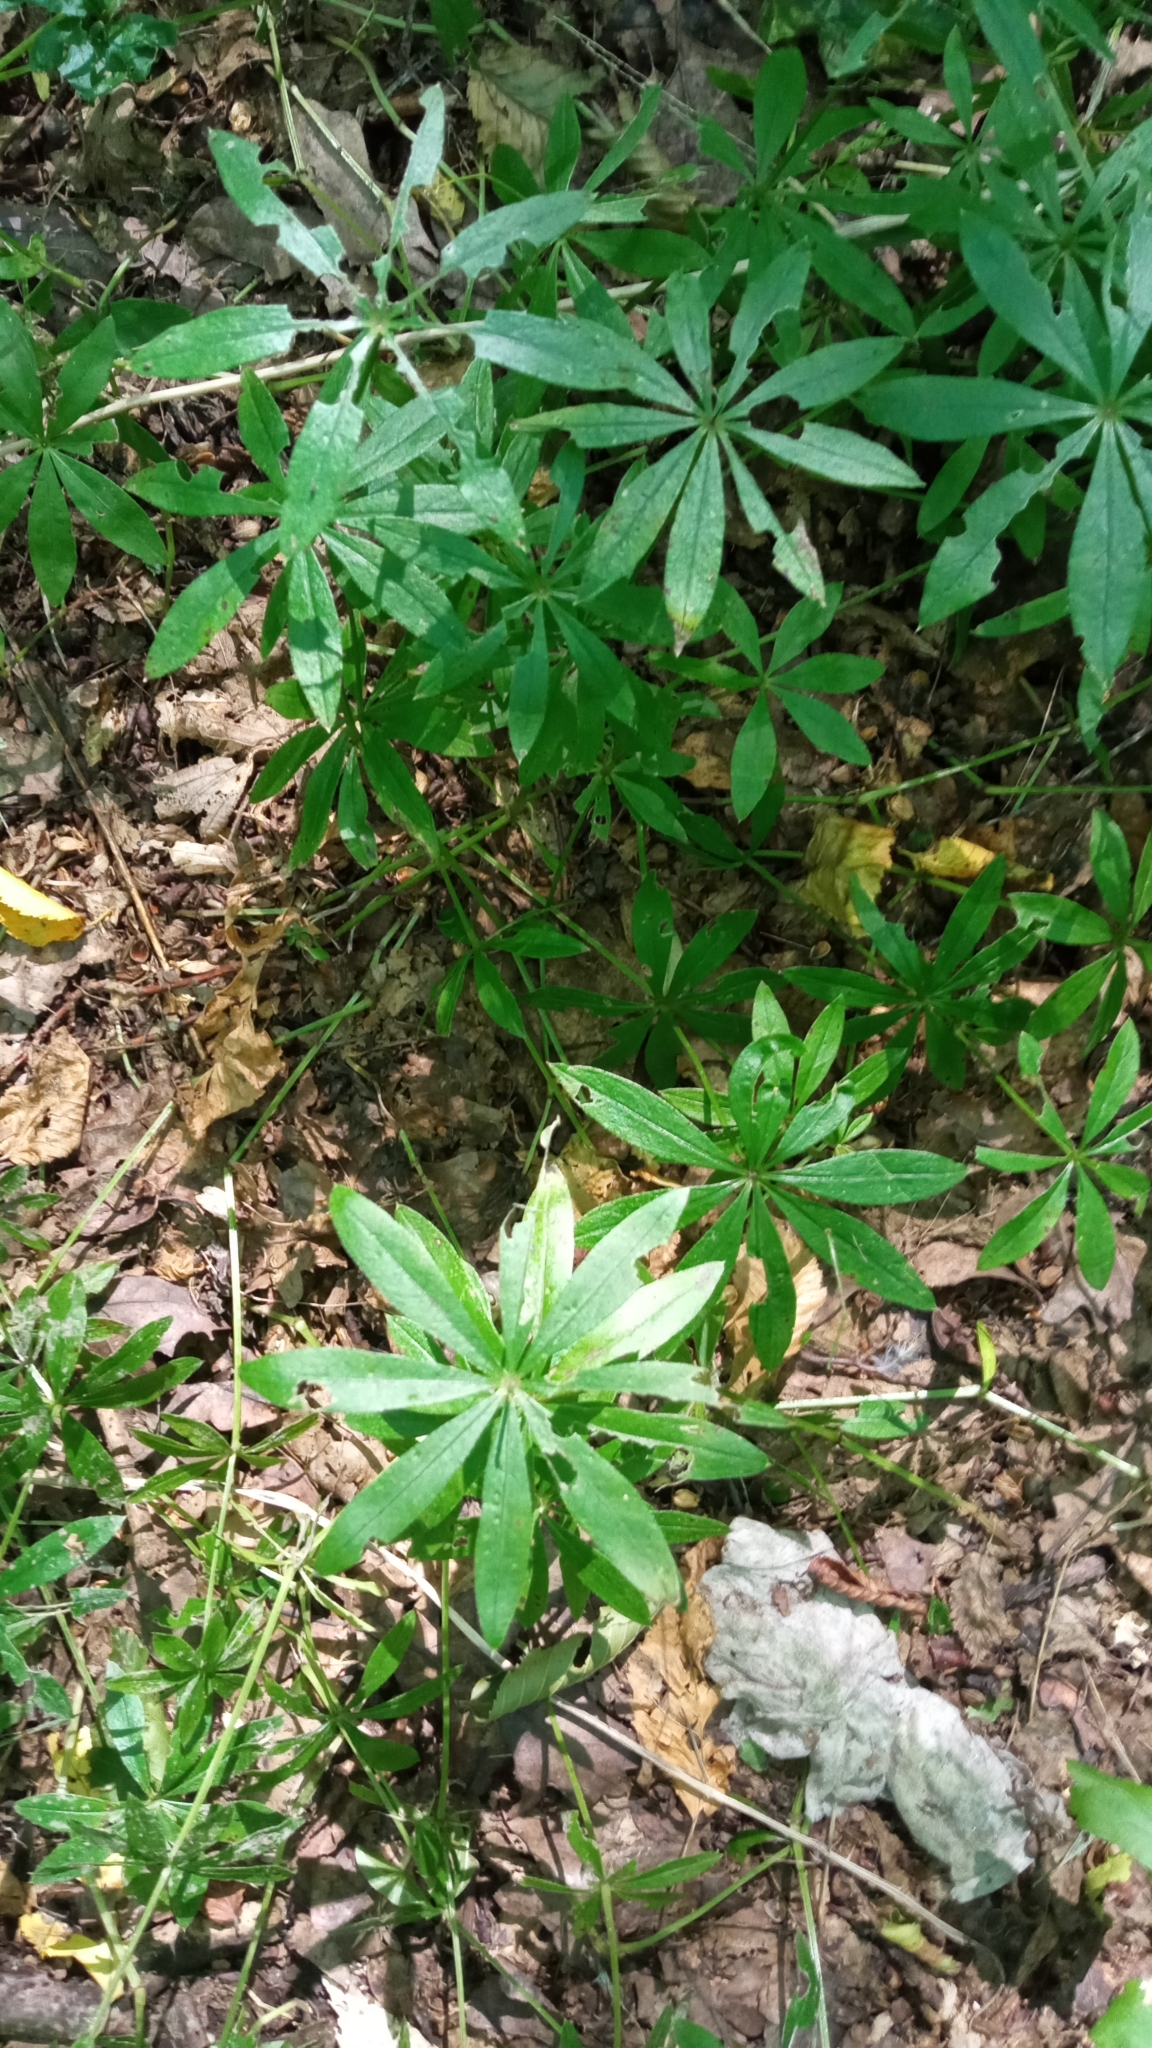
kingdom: Plantae
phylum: Tracheophyta
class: Magnoliopsida
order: Gentianales
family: Rubiaceae
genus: Galium
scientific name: Galium odoratum
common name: Sweet woodruff
